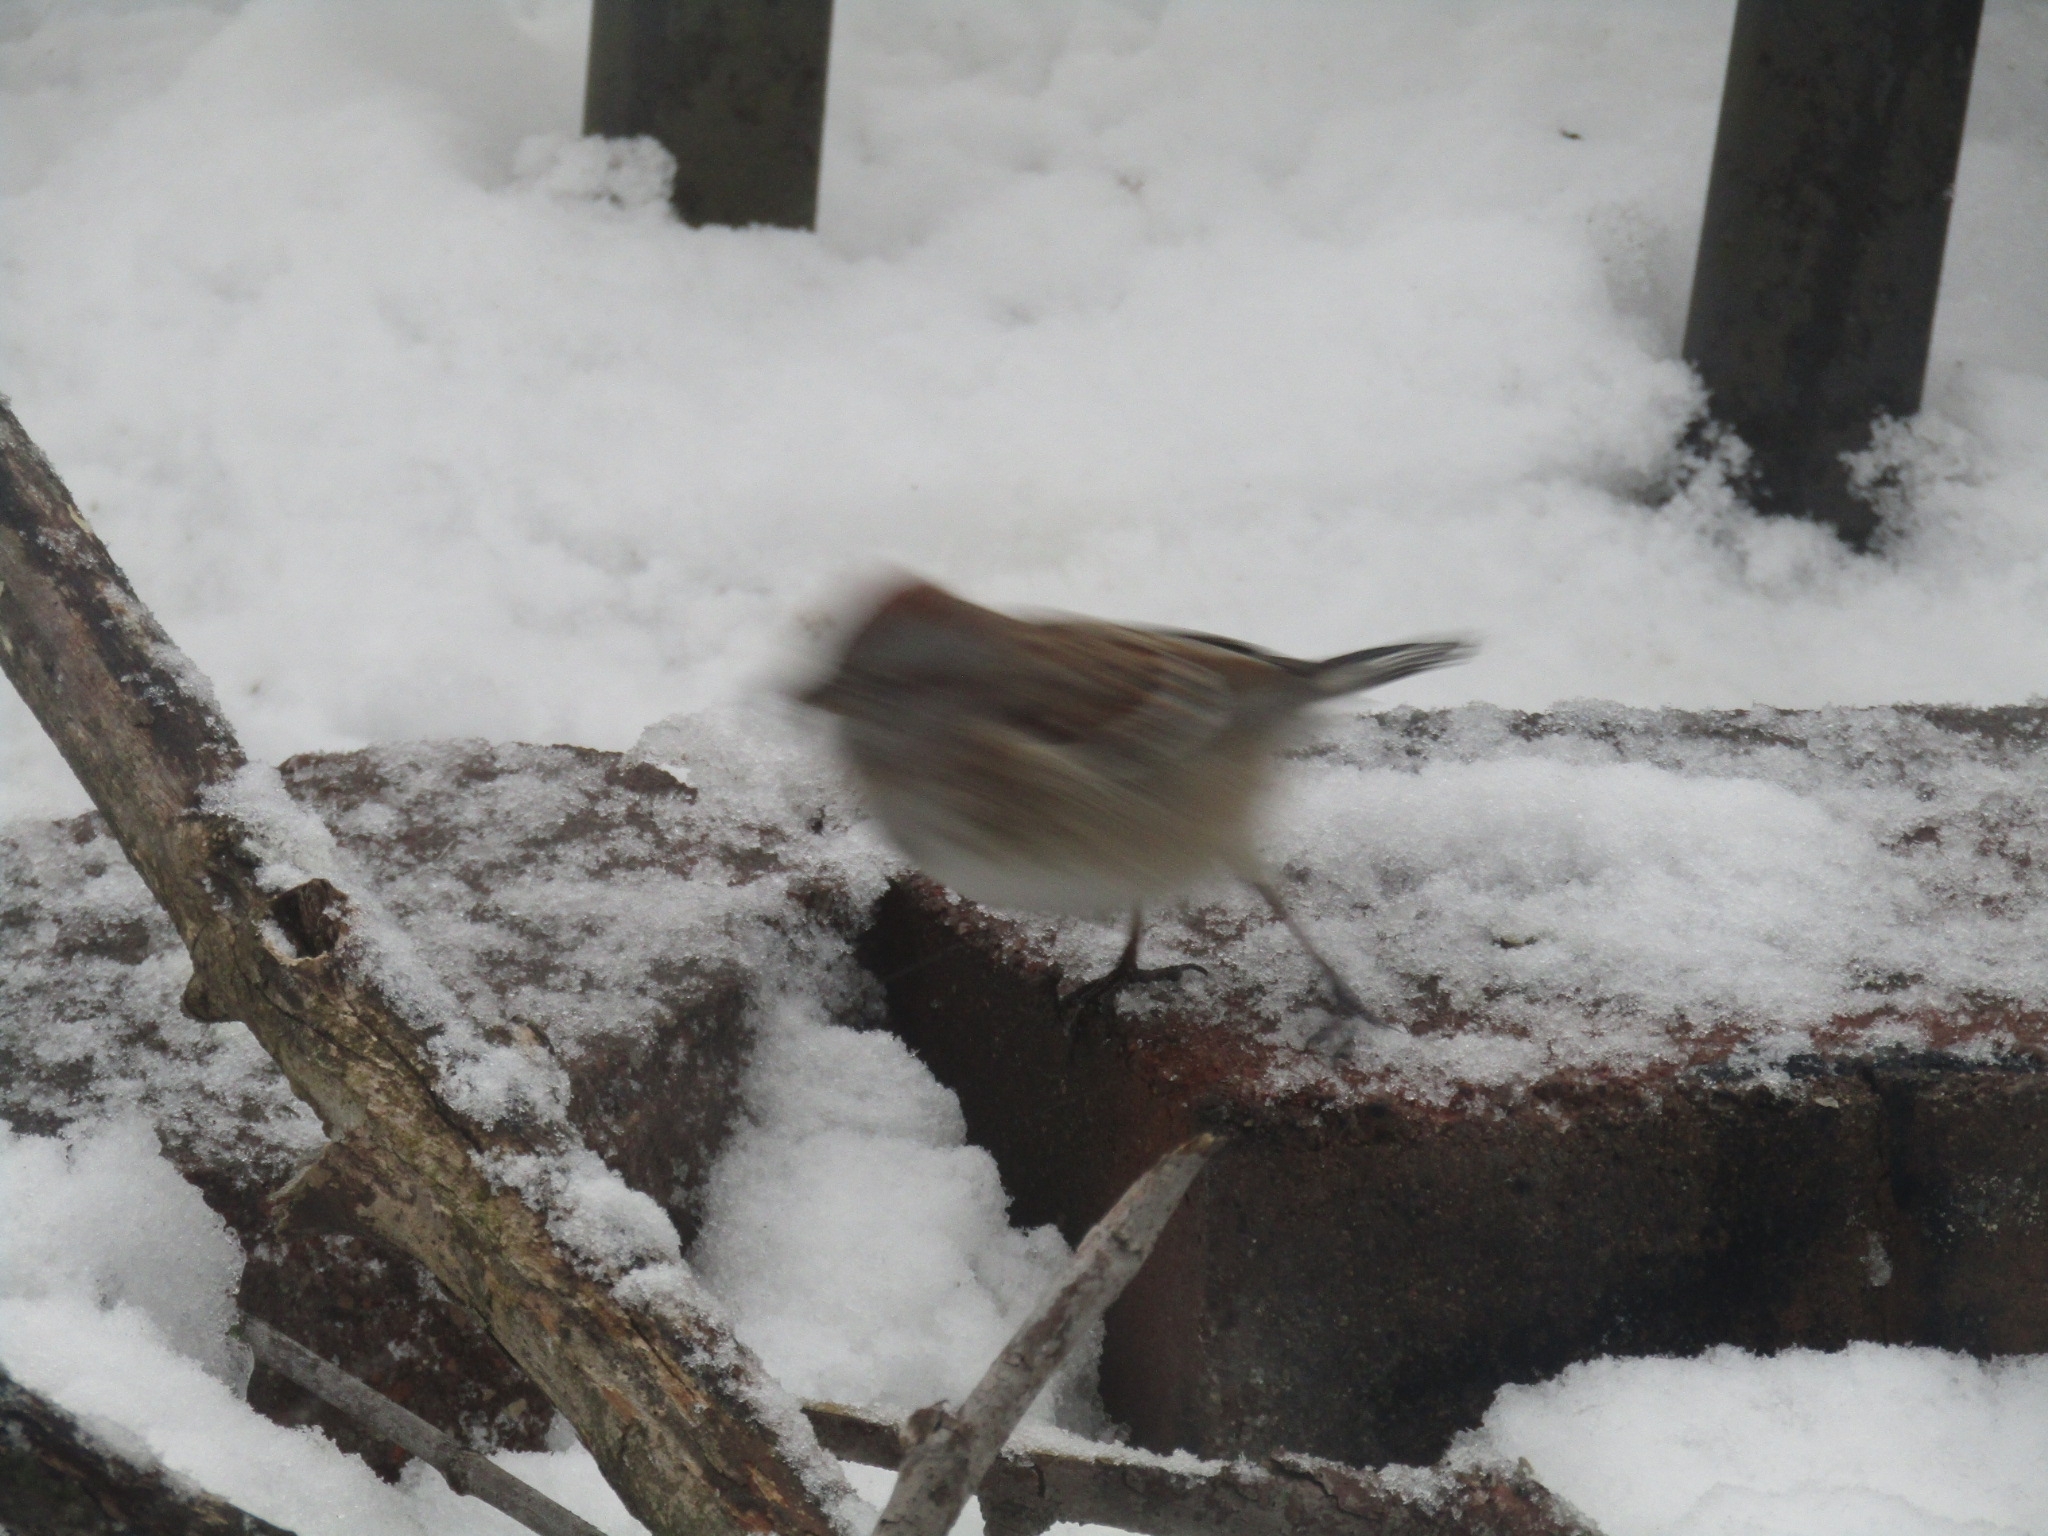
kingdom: Animalia
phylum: Chordata
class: Aves
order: Passeriformes
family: Passerellidae
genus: Spizelloides
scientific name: Spizelloides arborea
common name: American tree sparrow
